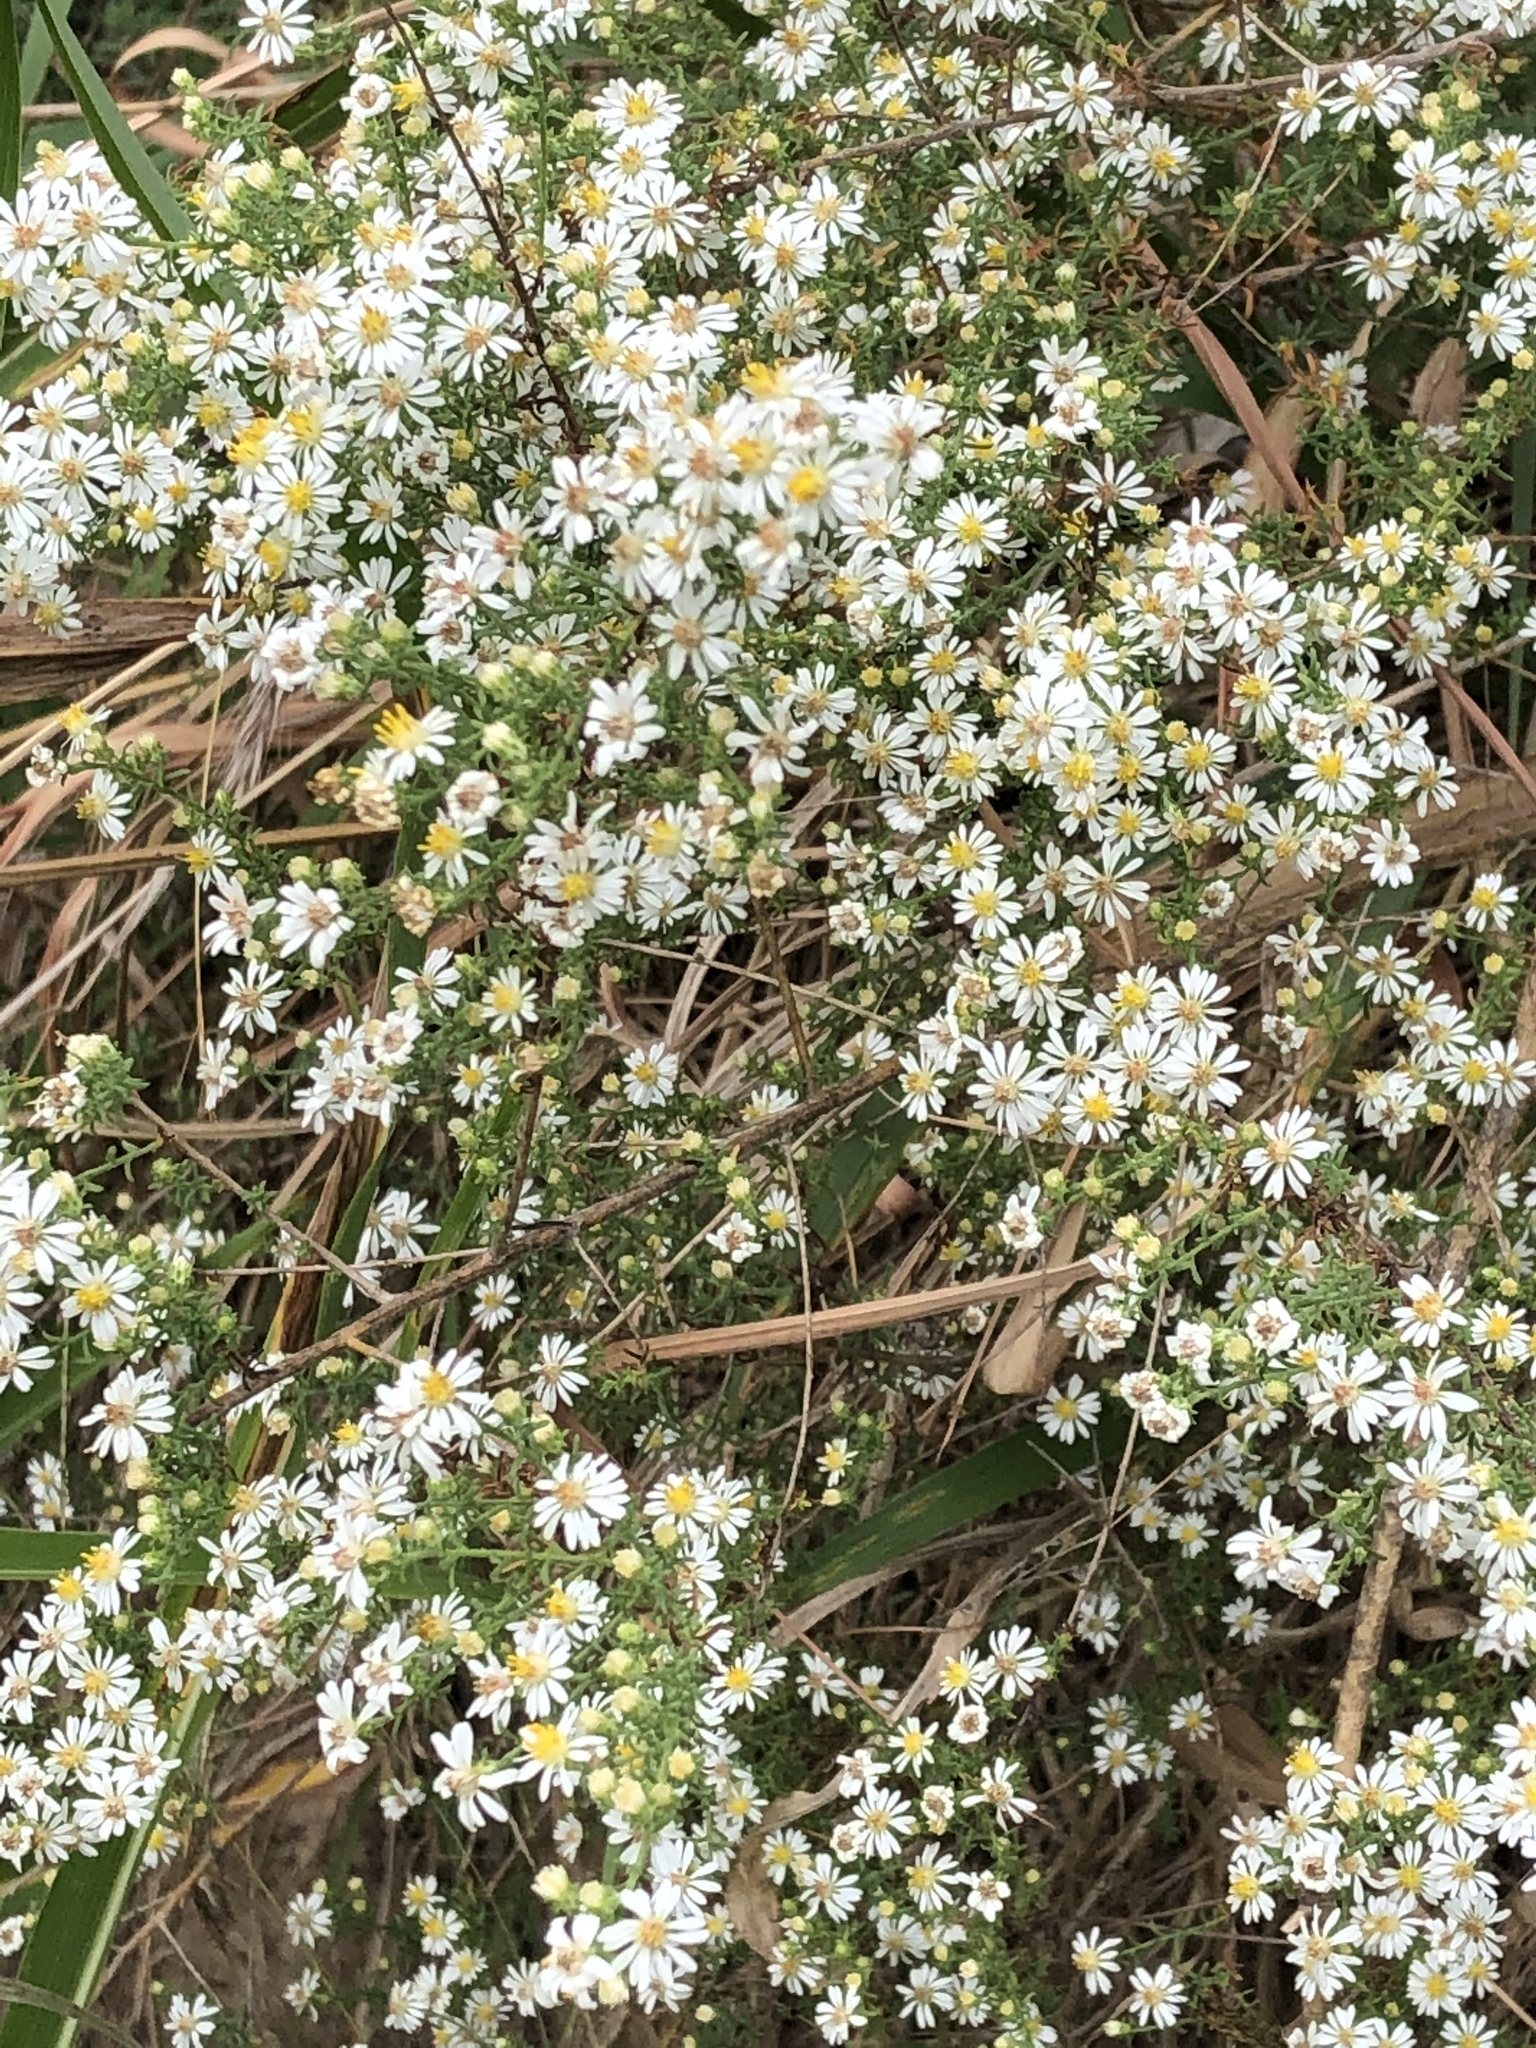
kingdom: Plantae
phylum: Tracheophyta
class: Magnoliopsida
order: Asterales
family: Asteraceae
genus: Symphyotrichum
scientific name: Symphyotrichum ericoides
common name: Heath aster
